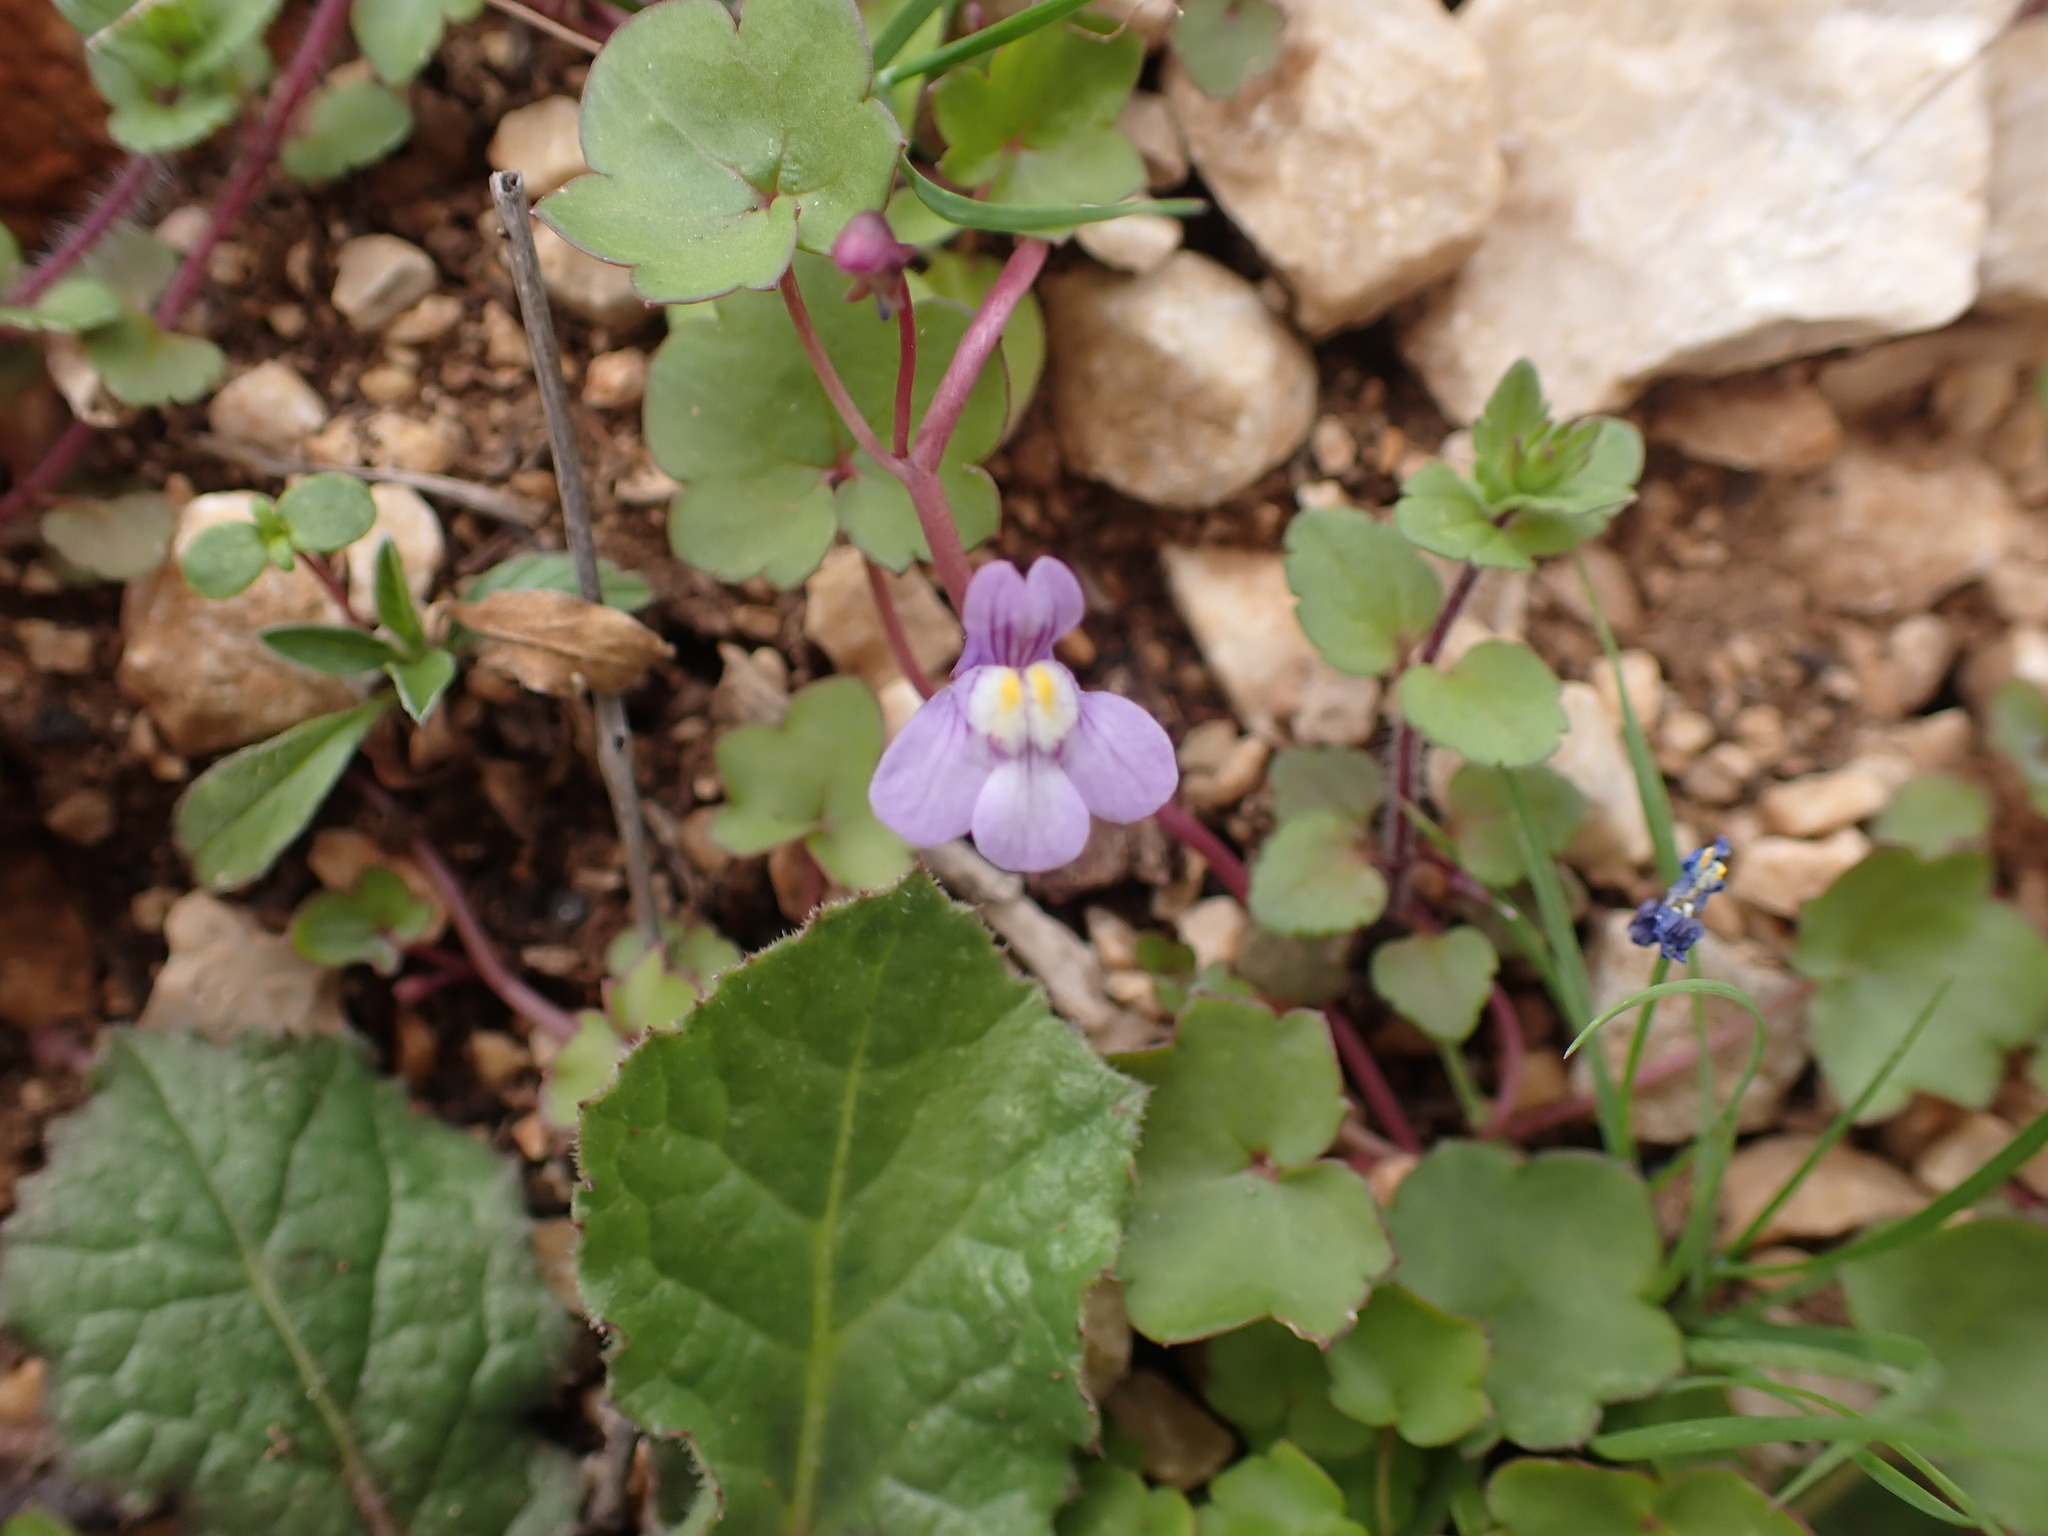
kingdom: Plantae
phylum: Tracheophyta
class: Magnoliopsida
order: Lamiales
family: Plantaginaceae
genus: Cymbalaria
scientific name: Cymbalaria muralis
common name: Ivy-leaved toadflax
